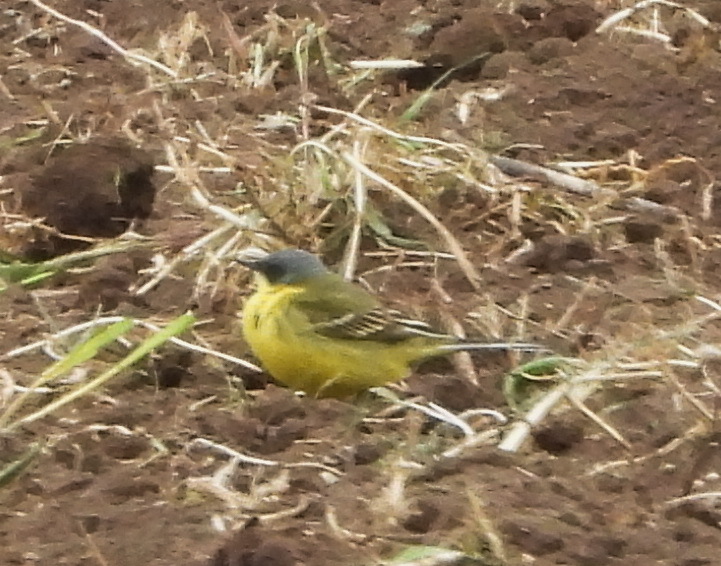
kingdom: Animalia
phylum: Chordata
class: Aves
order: Passeriformes
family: Motacillidae
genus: Motacilla
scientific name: Motacilla flava
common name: Western yellow wagtail
